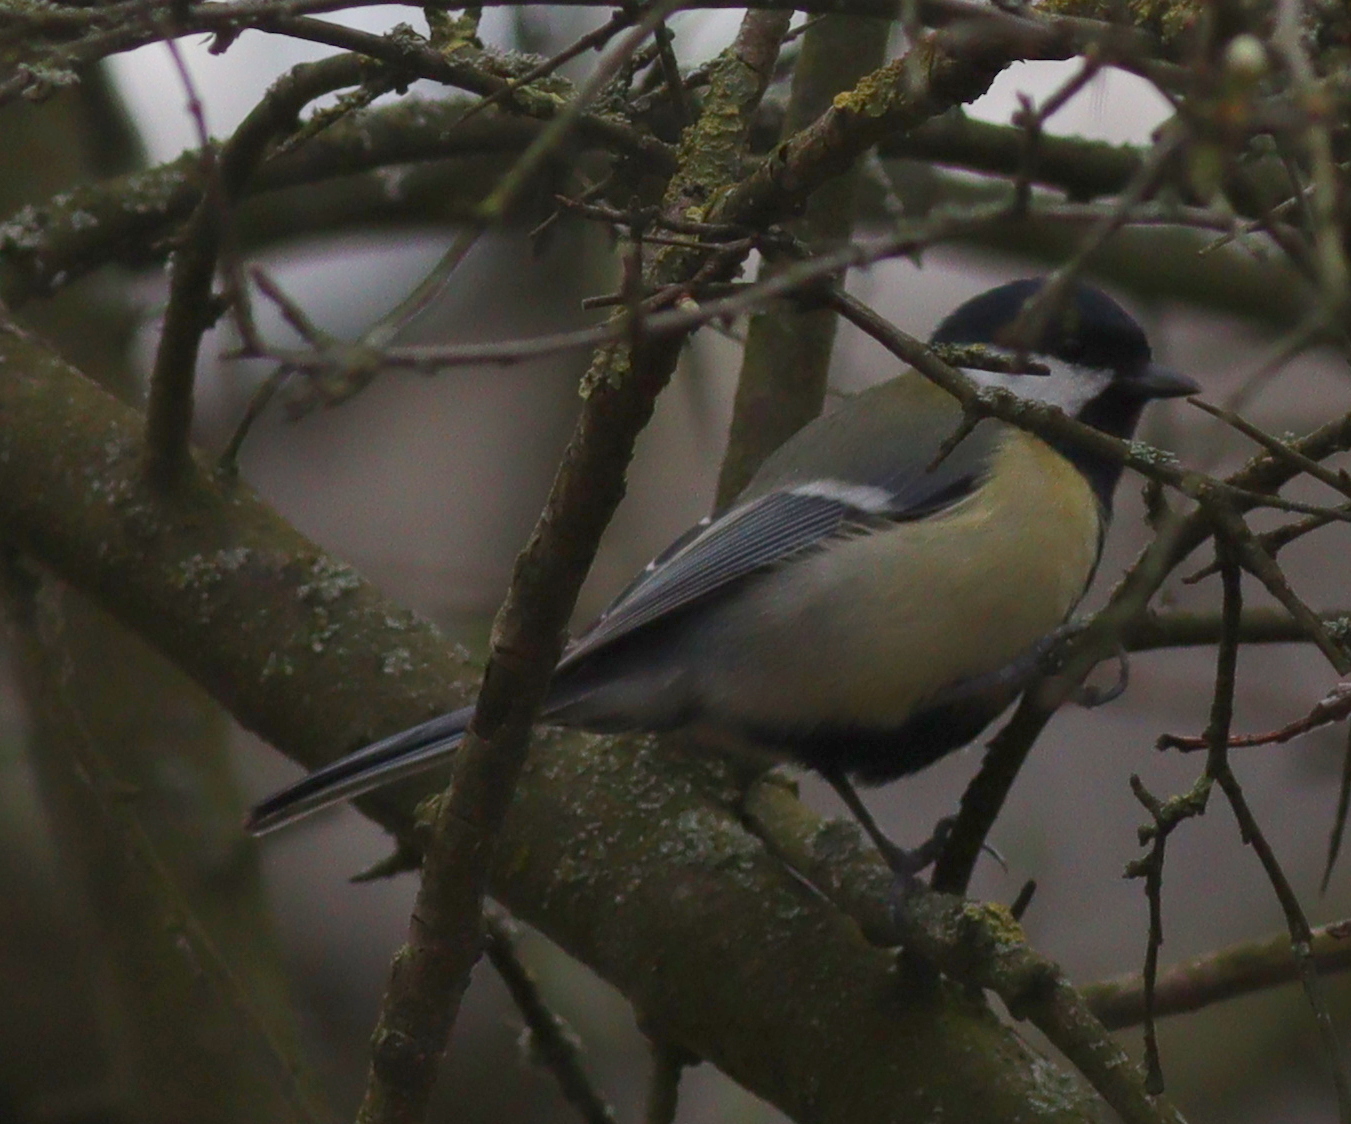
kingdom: Animalia
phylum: Chordata
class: Aves
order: Passeriformes
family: Paridae
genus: Parus
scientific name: Parus major
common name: Great tit
